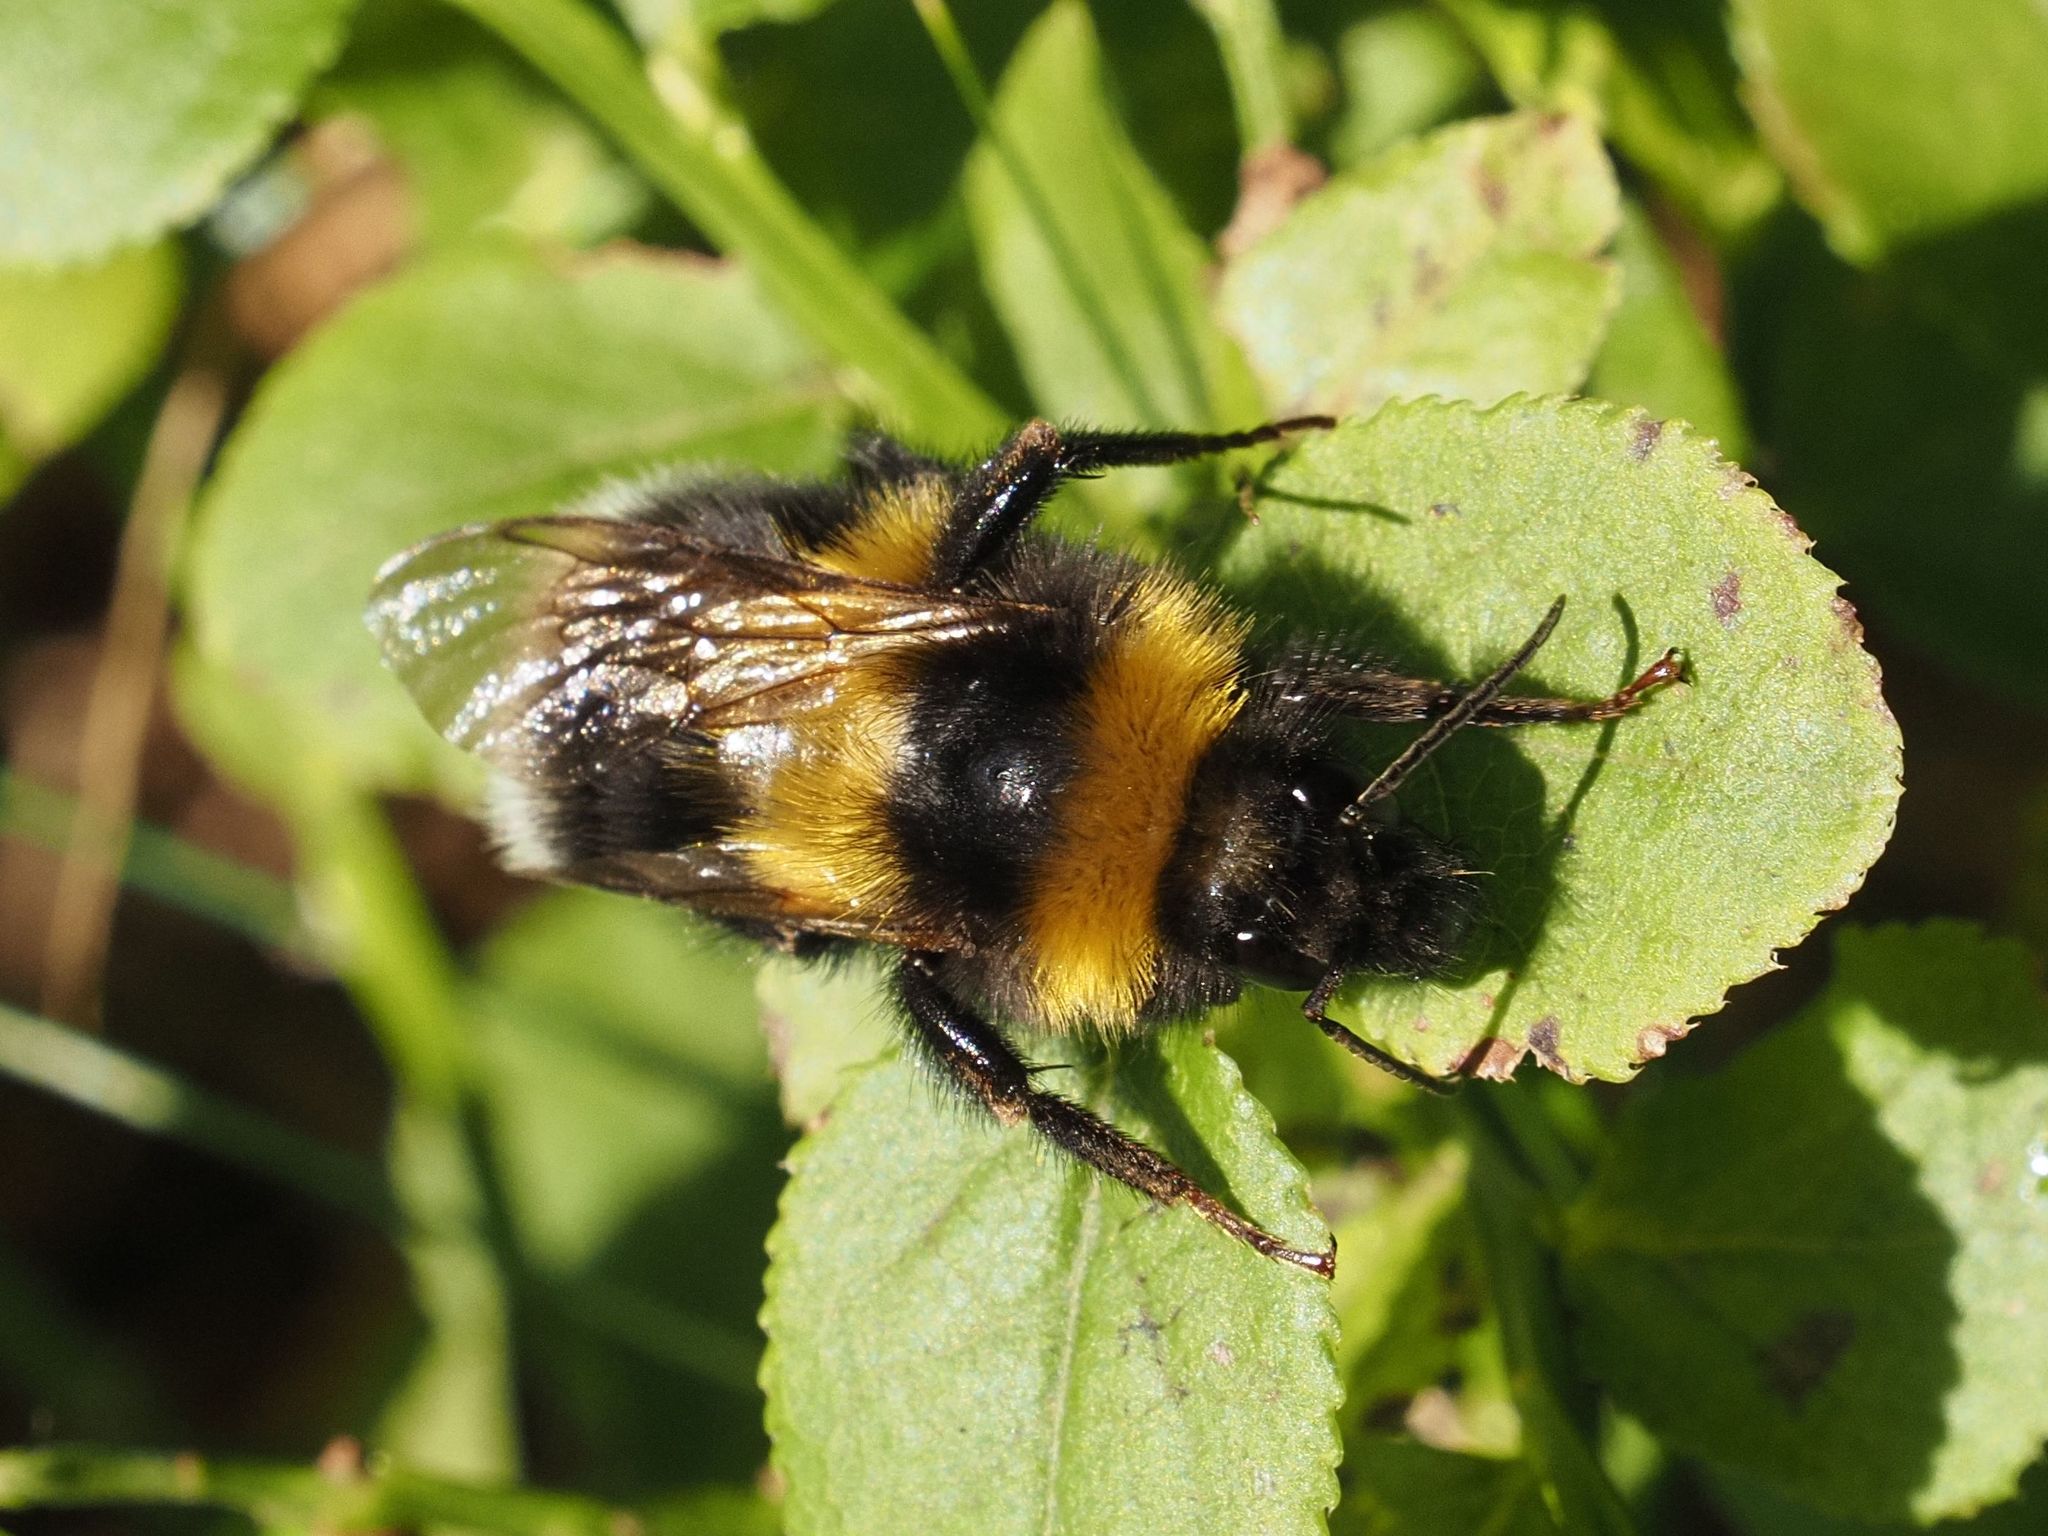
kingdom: Animalia
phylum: Arthropoda
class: Insecta
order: Hymenoptera
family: Apidae
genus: Bombus
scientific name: Bombus hortorum
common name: Garden bumblebee
